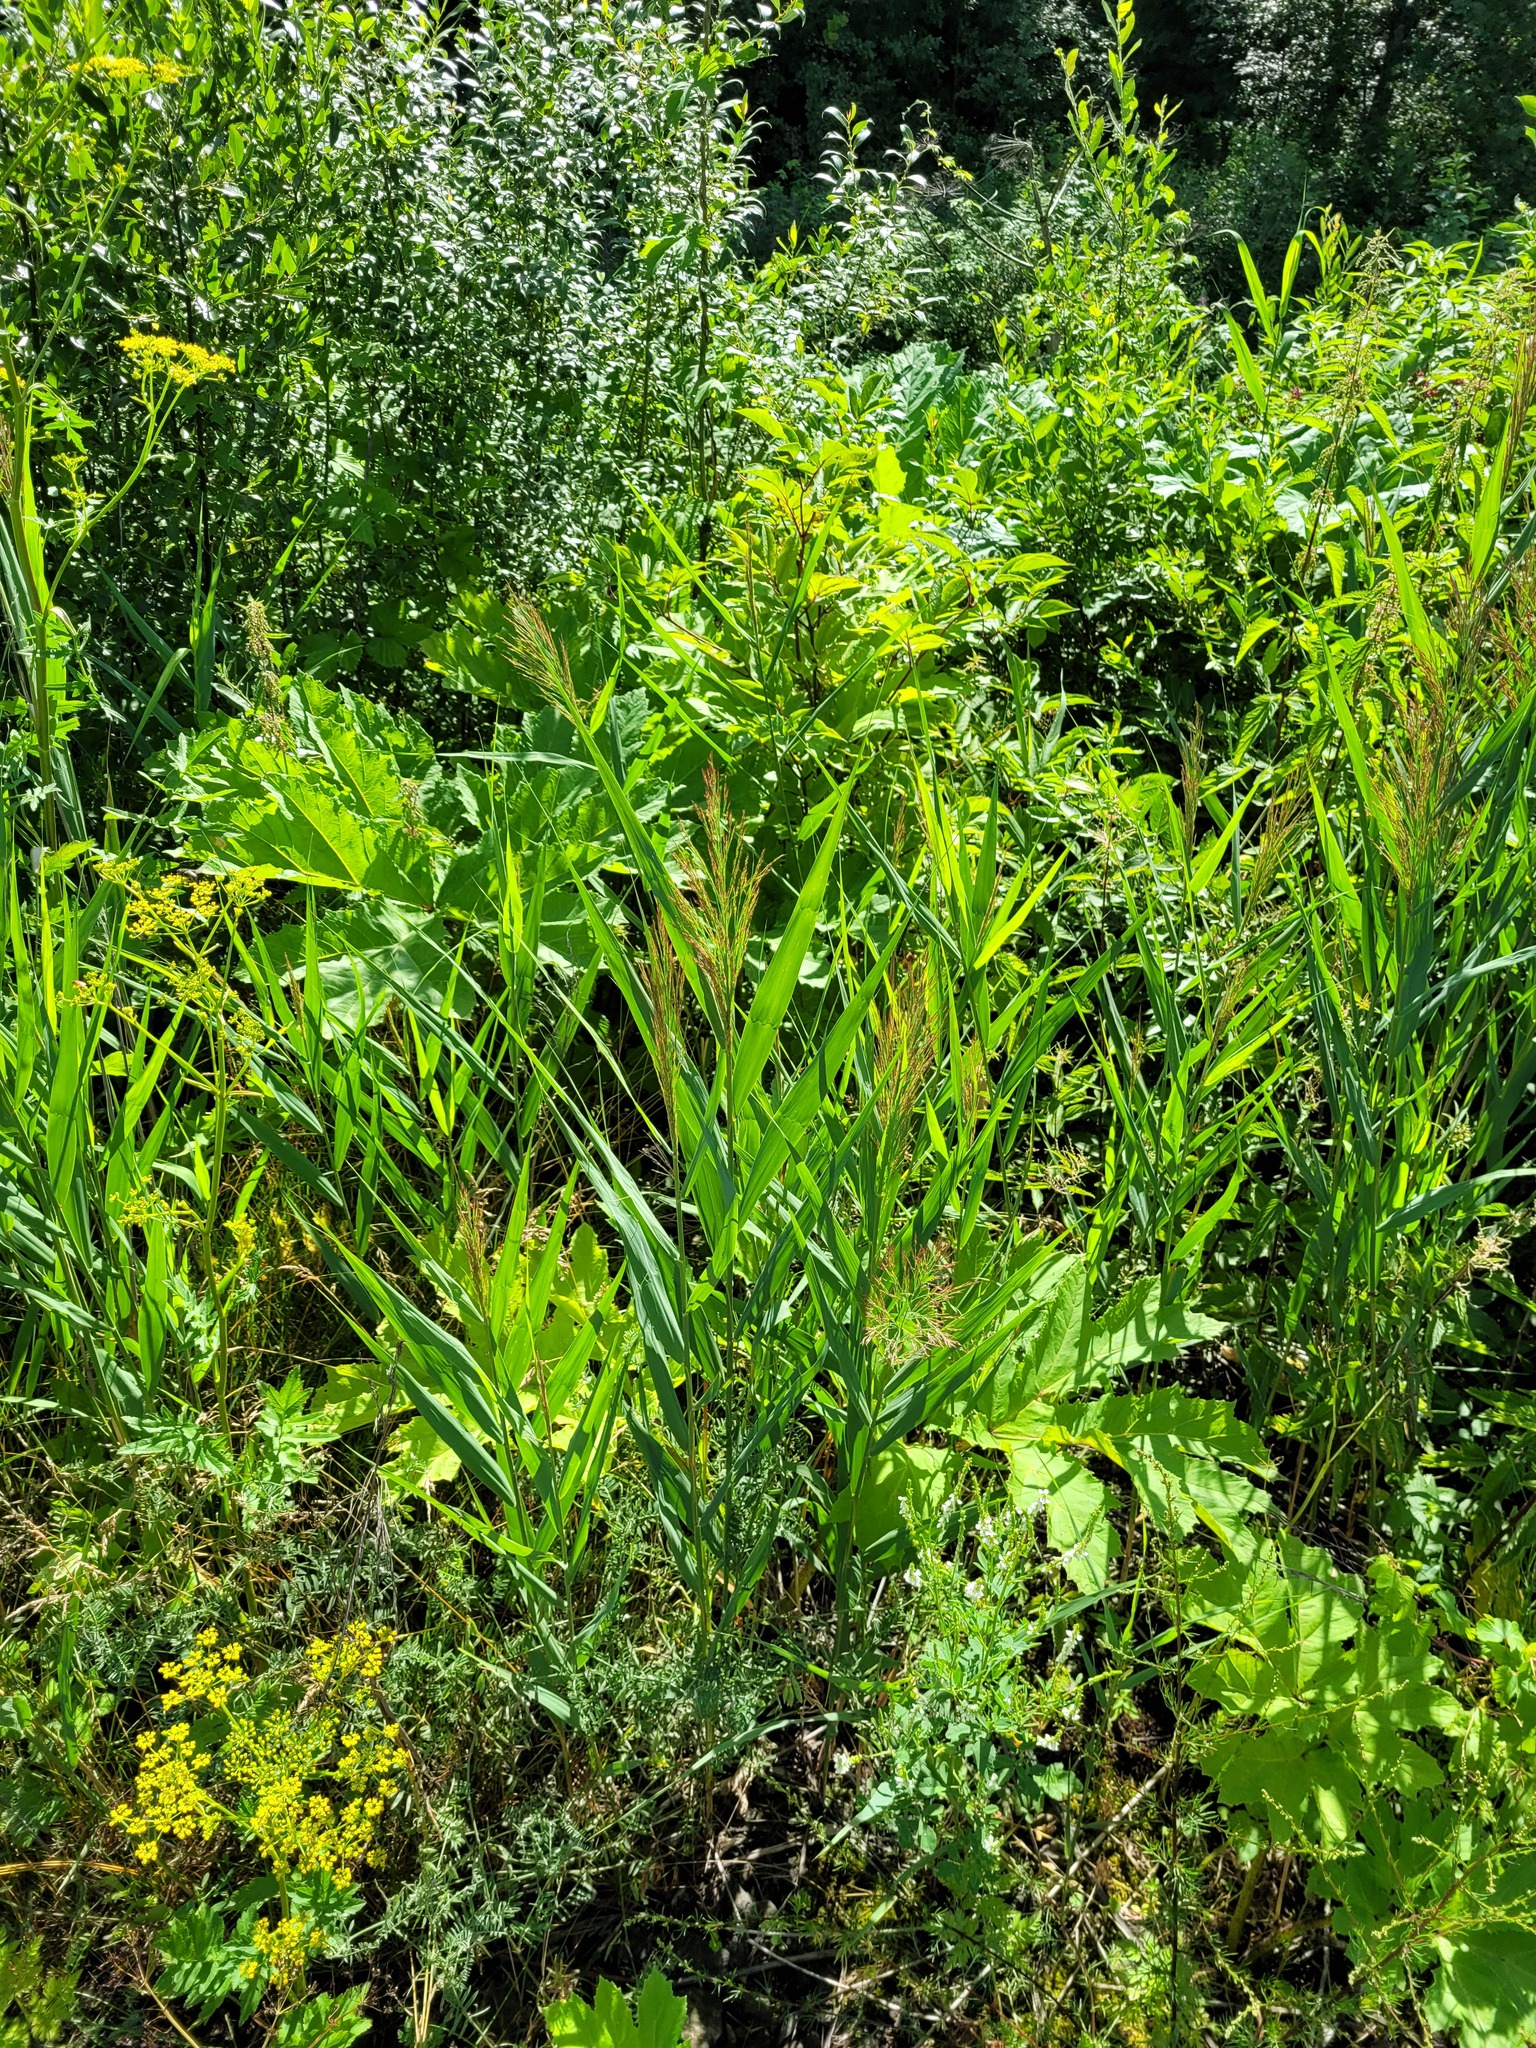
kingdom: Plantae
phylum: Tracheophyta
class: Liliopsida
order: Poales
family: Poaceae
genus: Phragmites
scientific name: Phragmites australis
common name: Common reed
